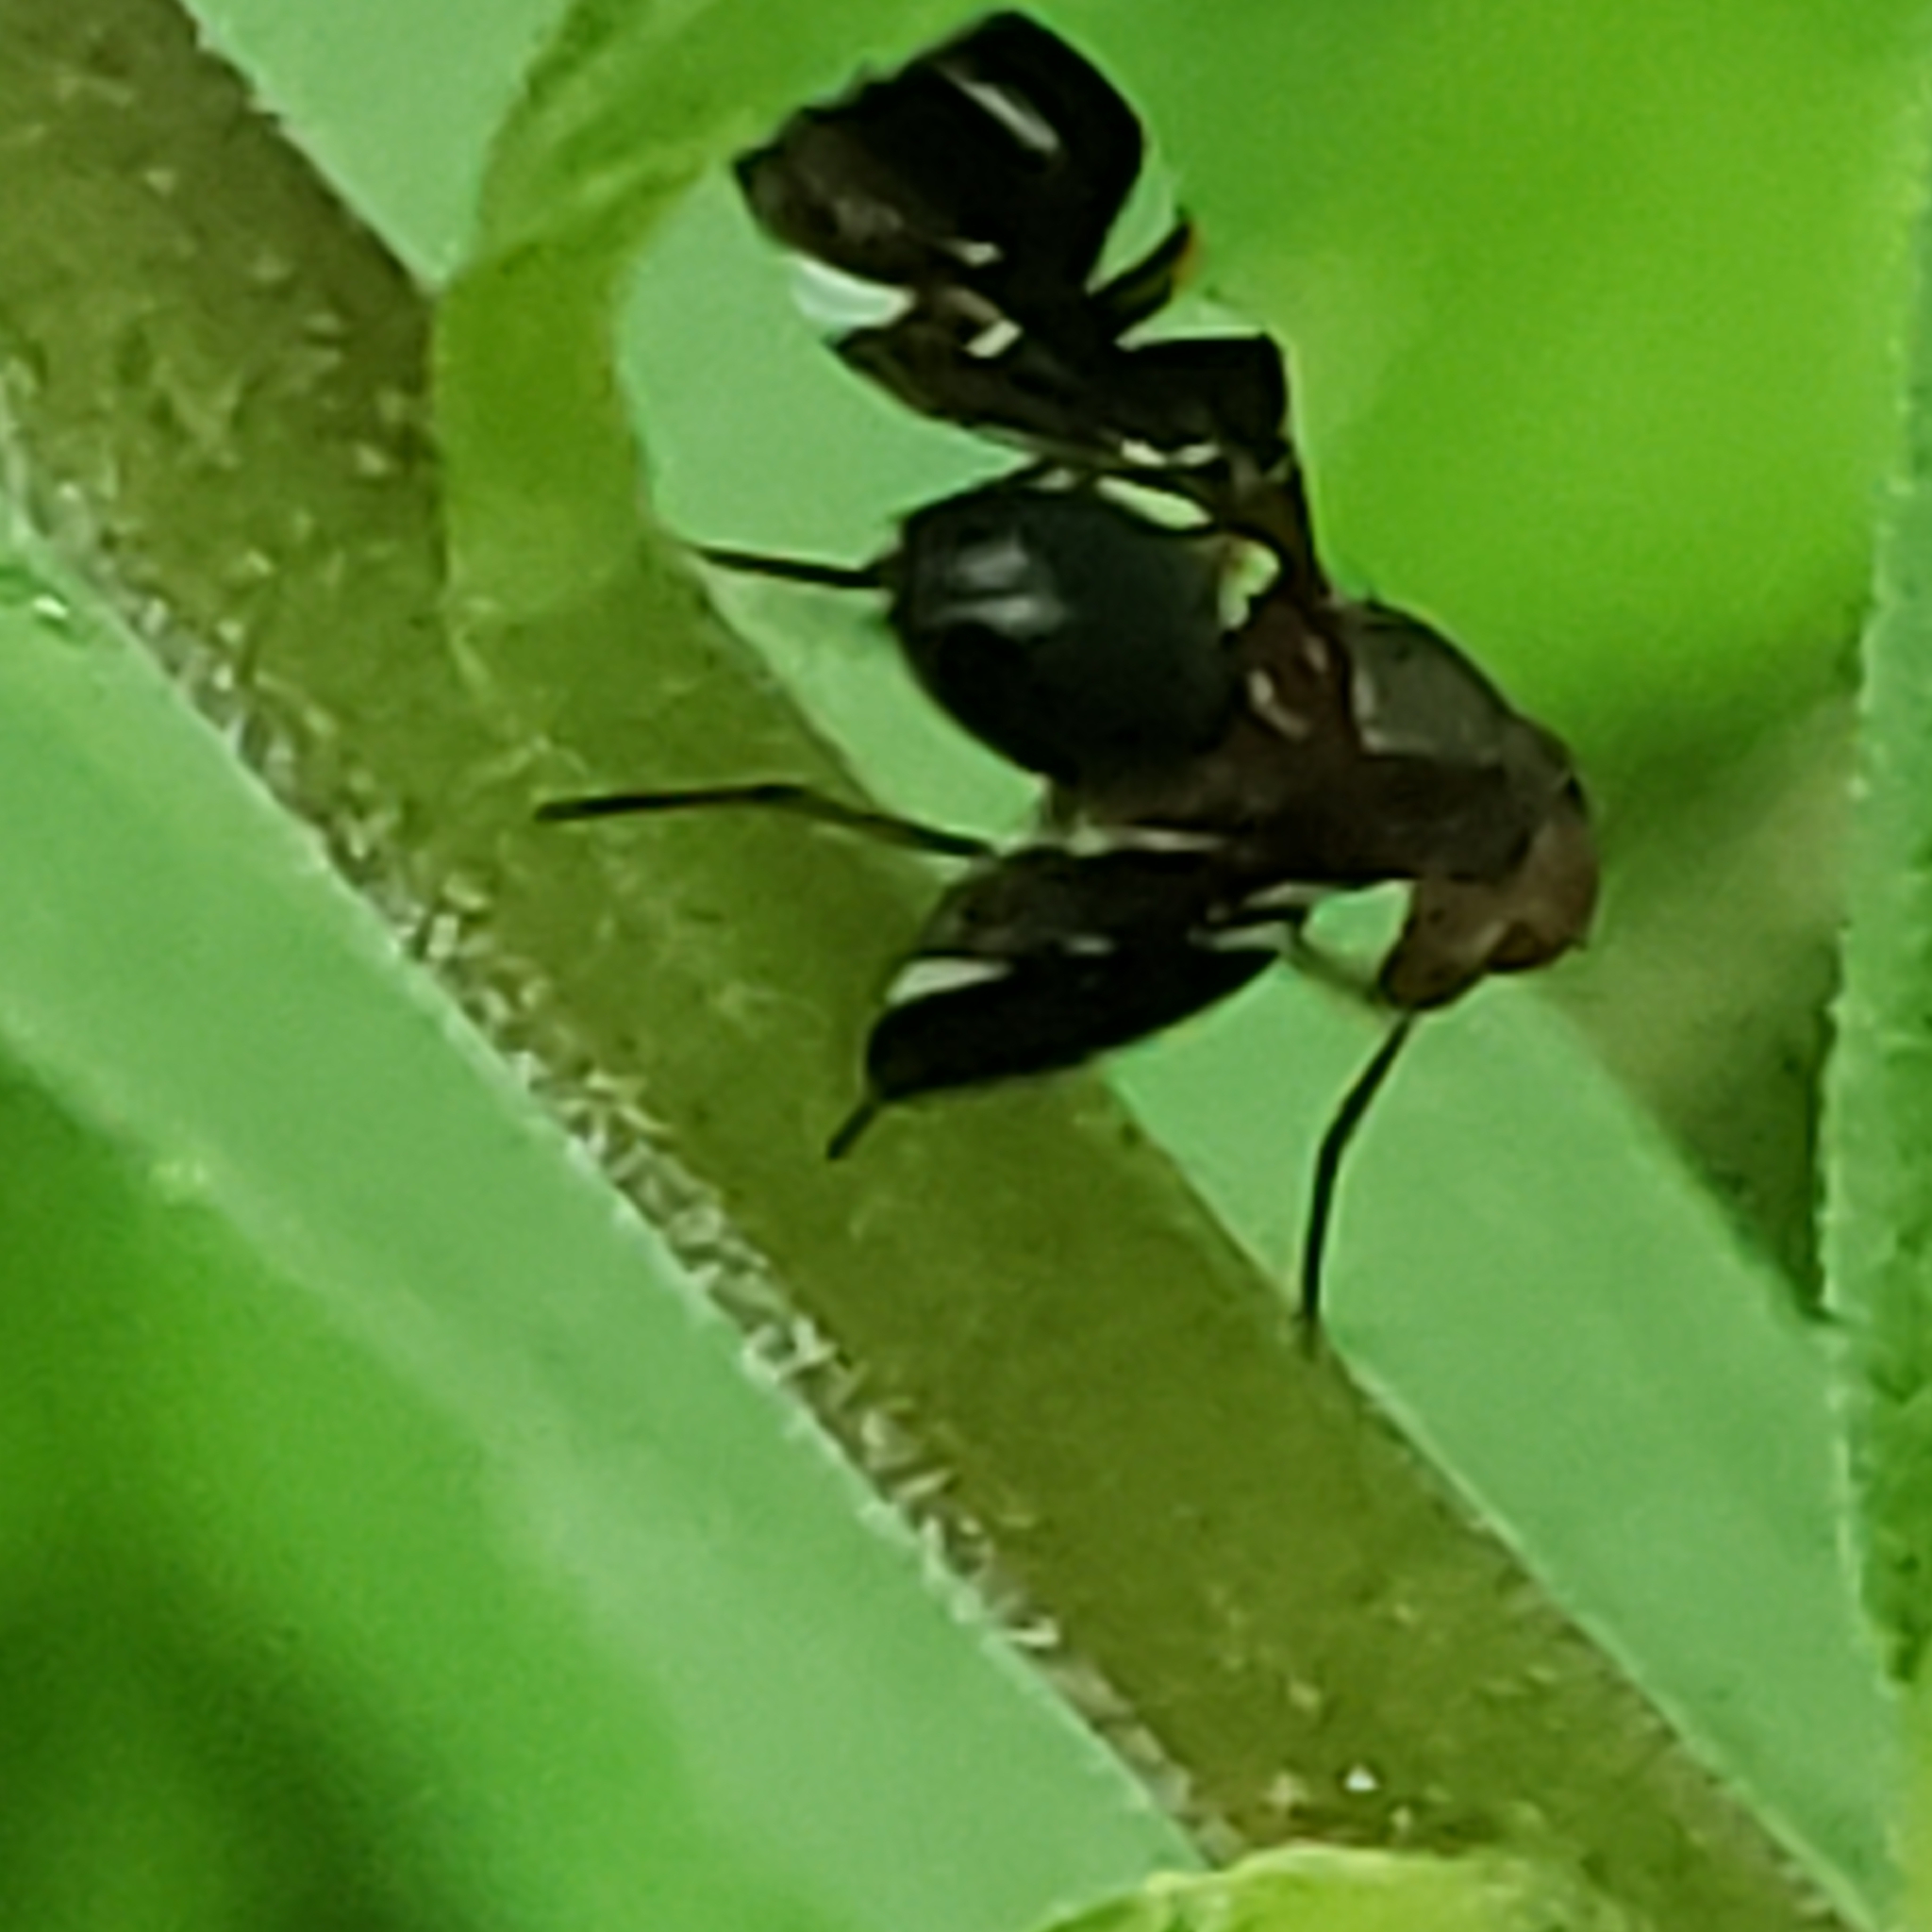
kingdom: Animalia
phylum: Arthropoda
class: Insecta
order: Diptera
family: Ulidiidae
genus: Delphinia
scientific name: Delphinia picta
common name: Common picture-winged fly
